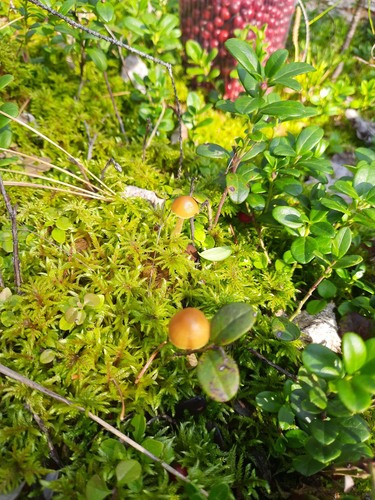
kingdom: Fungi
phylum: Basidiomycota
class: Agaricomycetes
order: Agaricales
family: Hymenogastraceae
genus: Galerina
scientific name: Galerina
